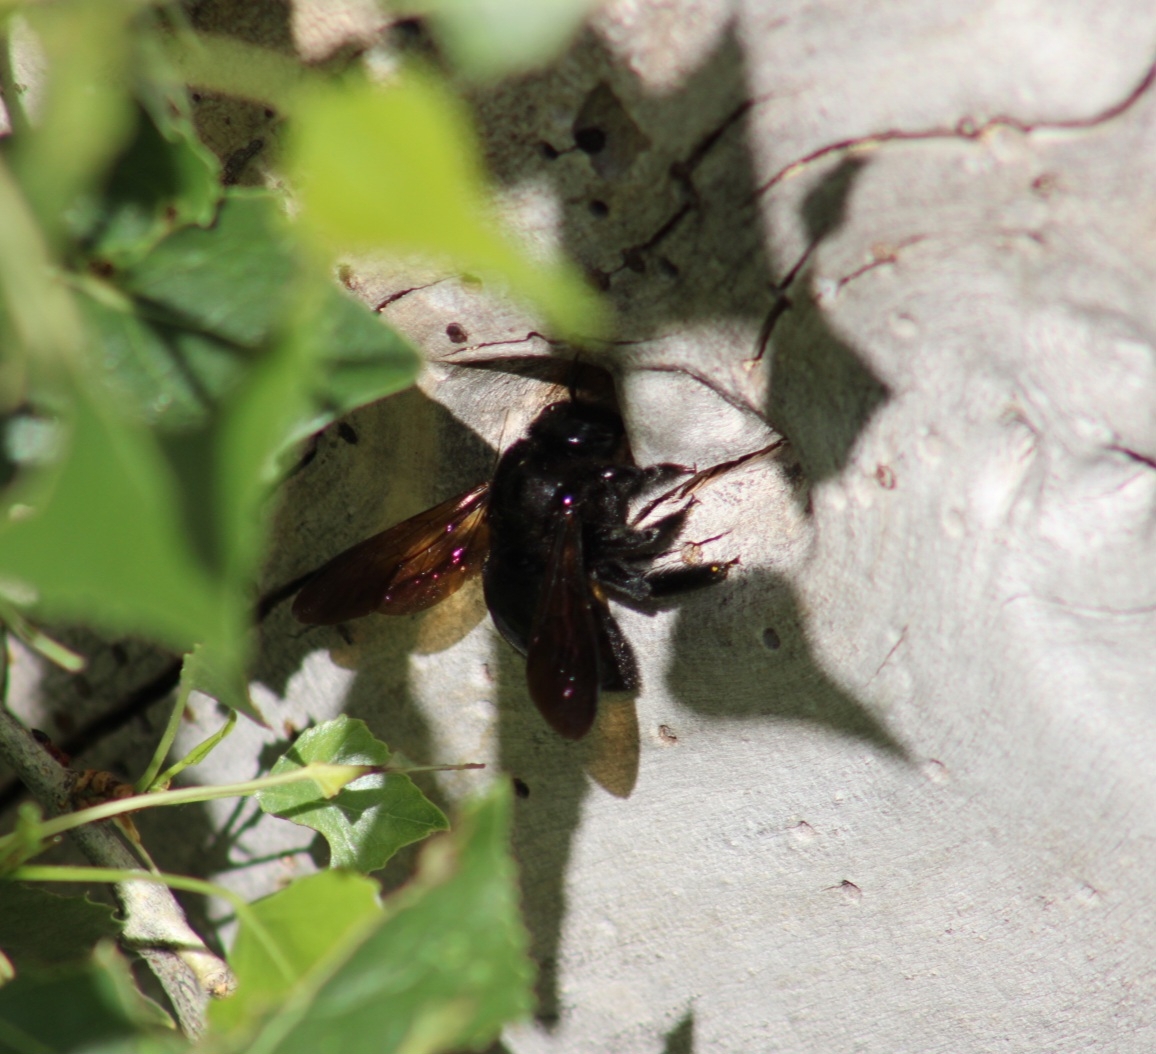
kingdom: Animalia
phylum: Arthropoda
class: Insecta
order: Hymenoptera
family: Apidae
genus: Xylocopa
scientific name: Xylocopa sonorina
